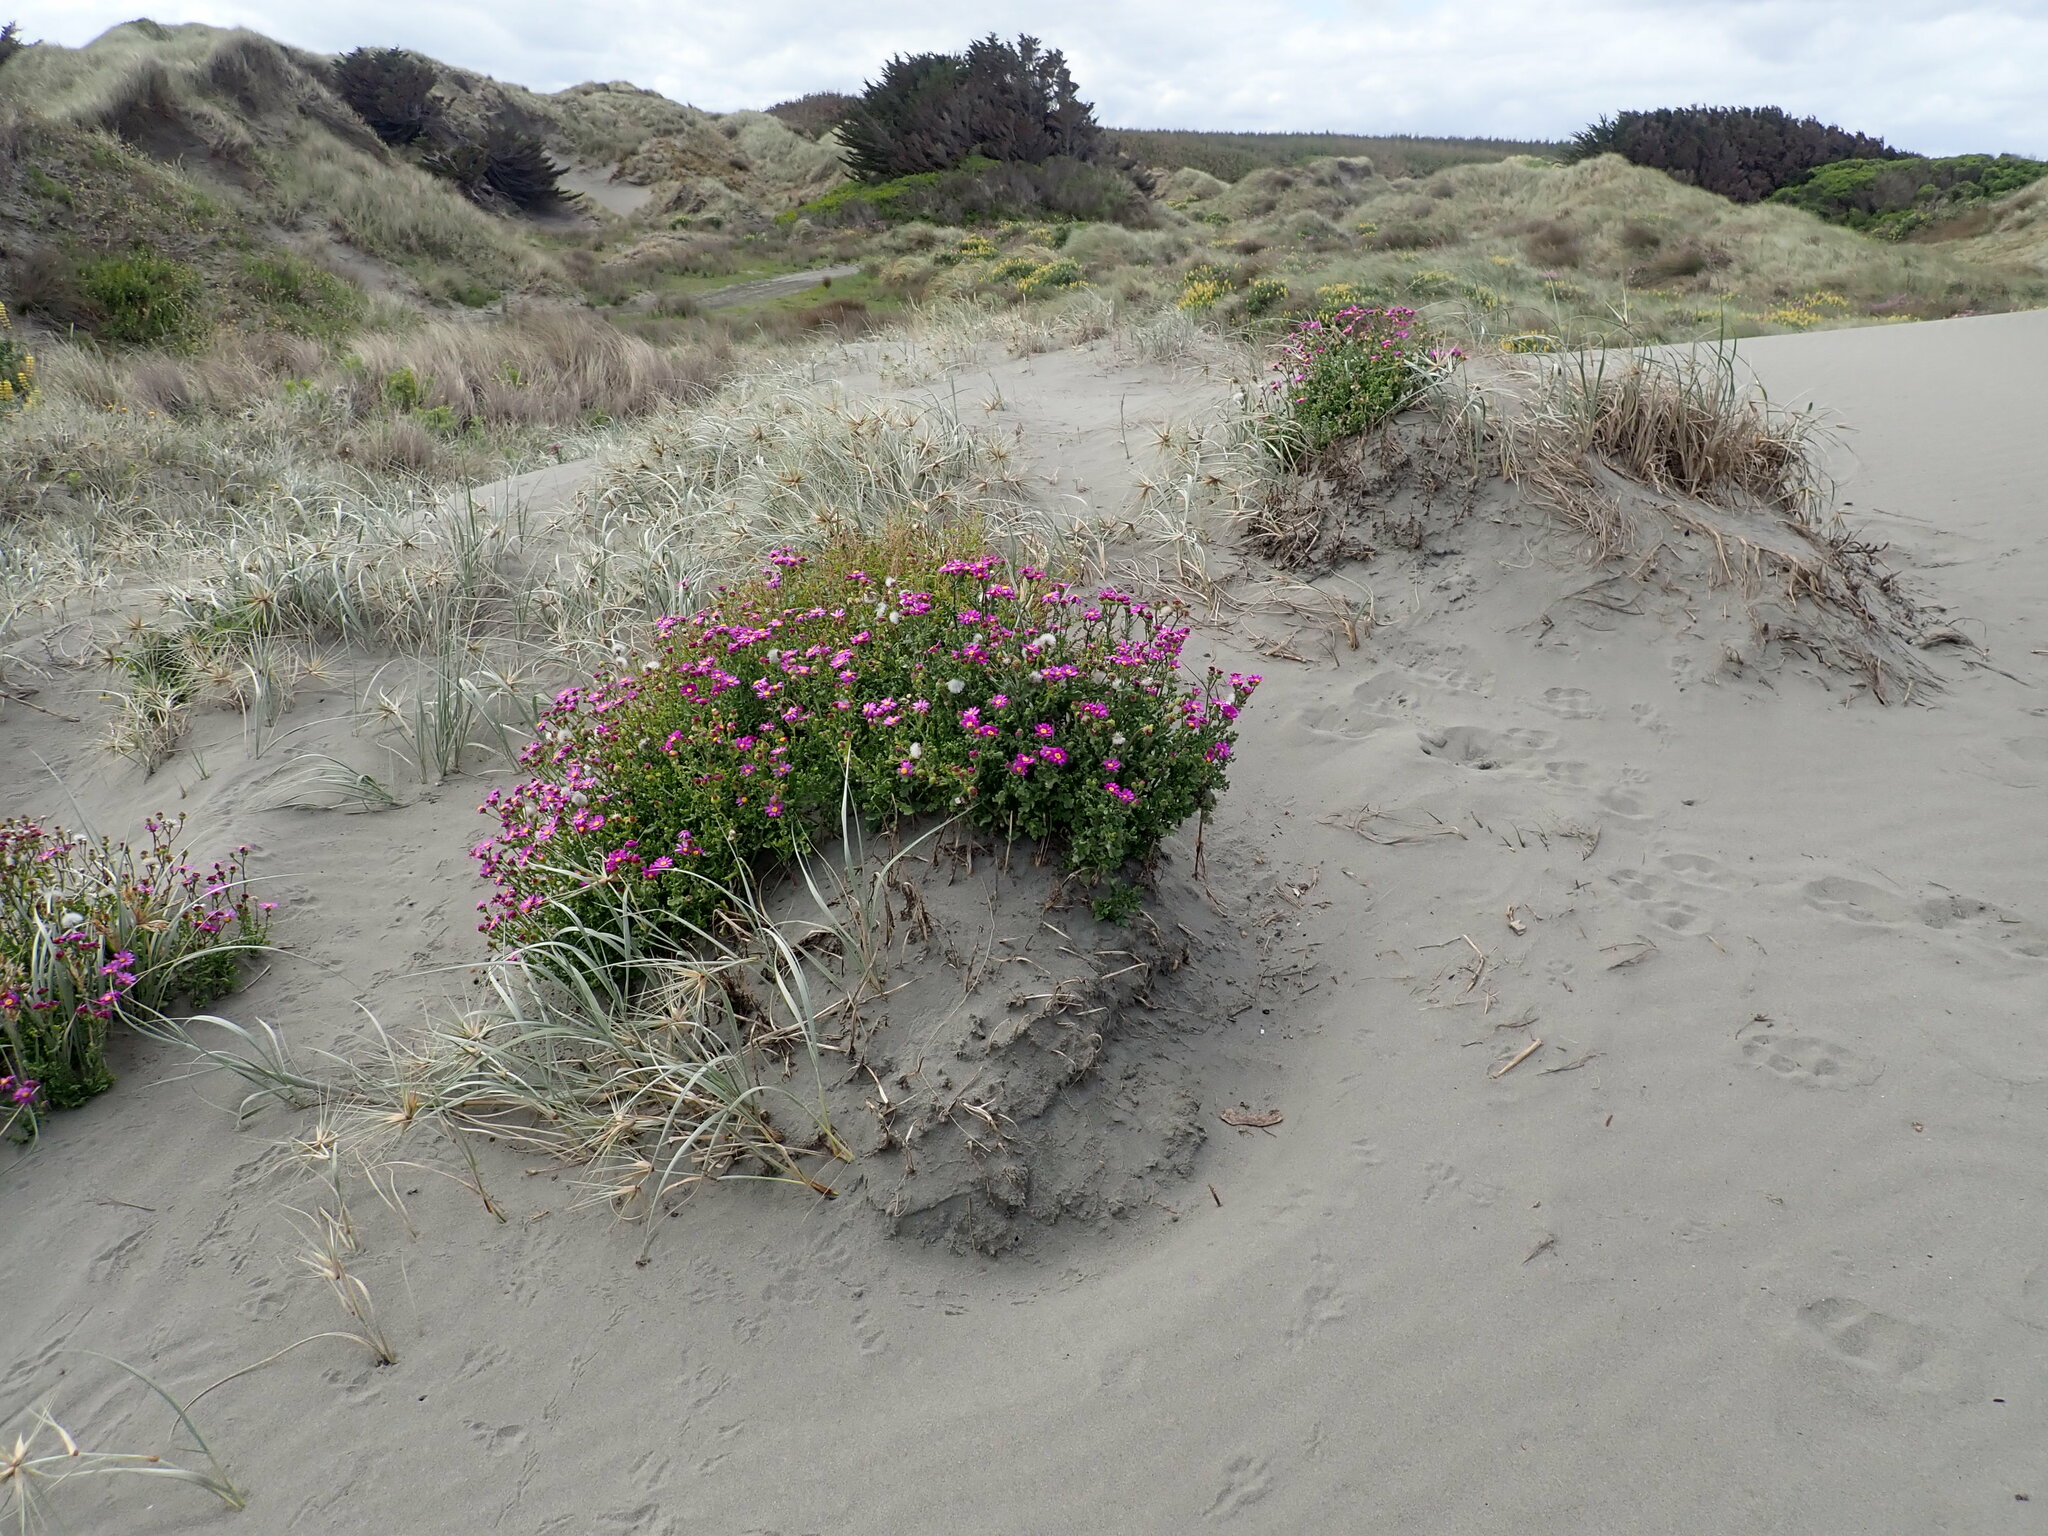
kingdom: Plantae
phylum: Tracheophyta
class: Magnoliopsida
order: Asterales
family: Asteraceae
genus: Senecio
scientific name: Senecio elegans
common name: Purple groundsel
